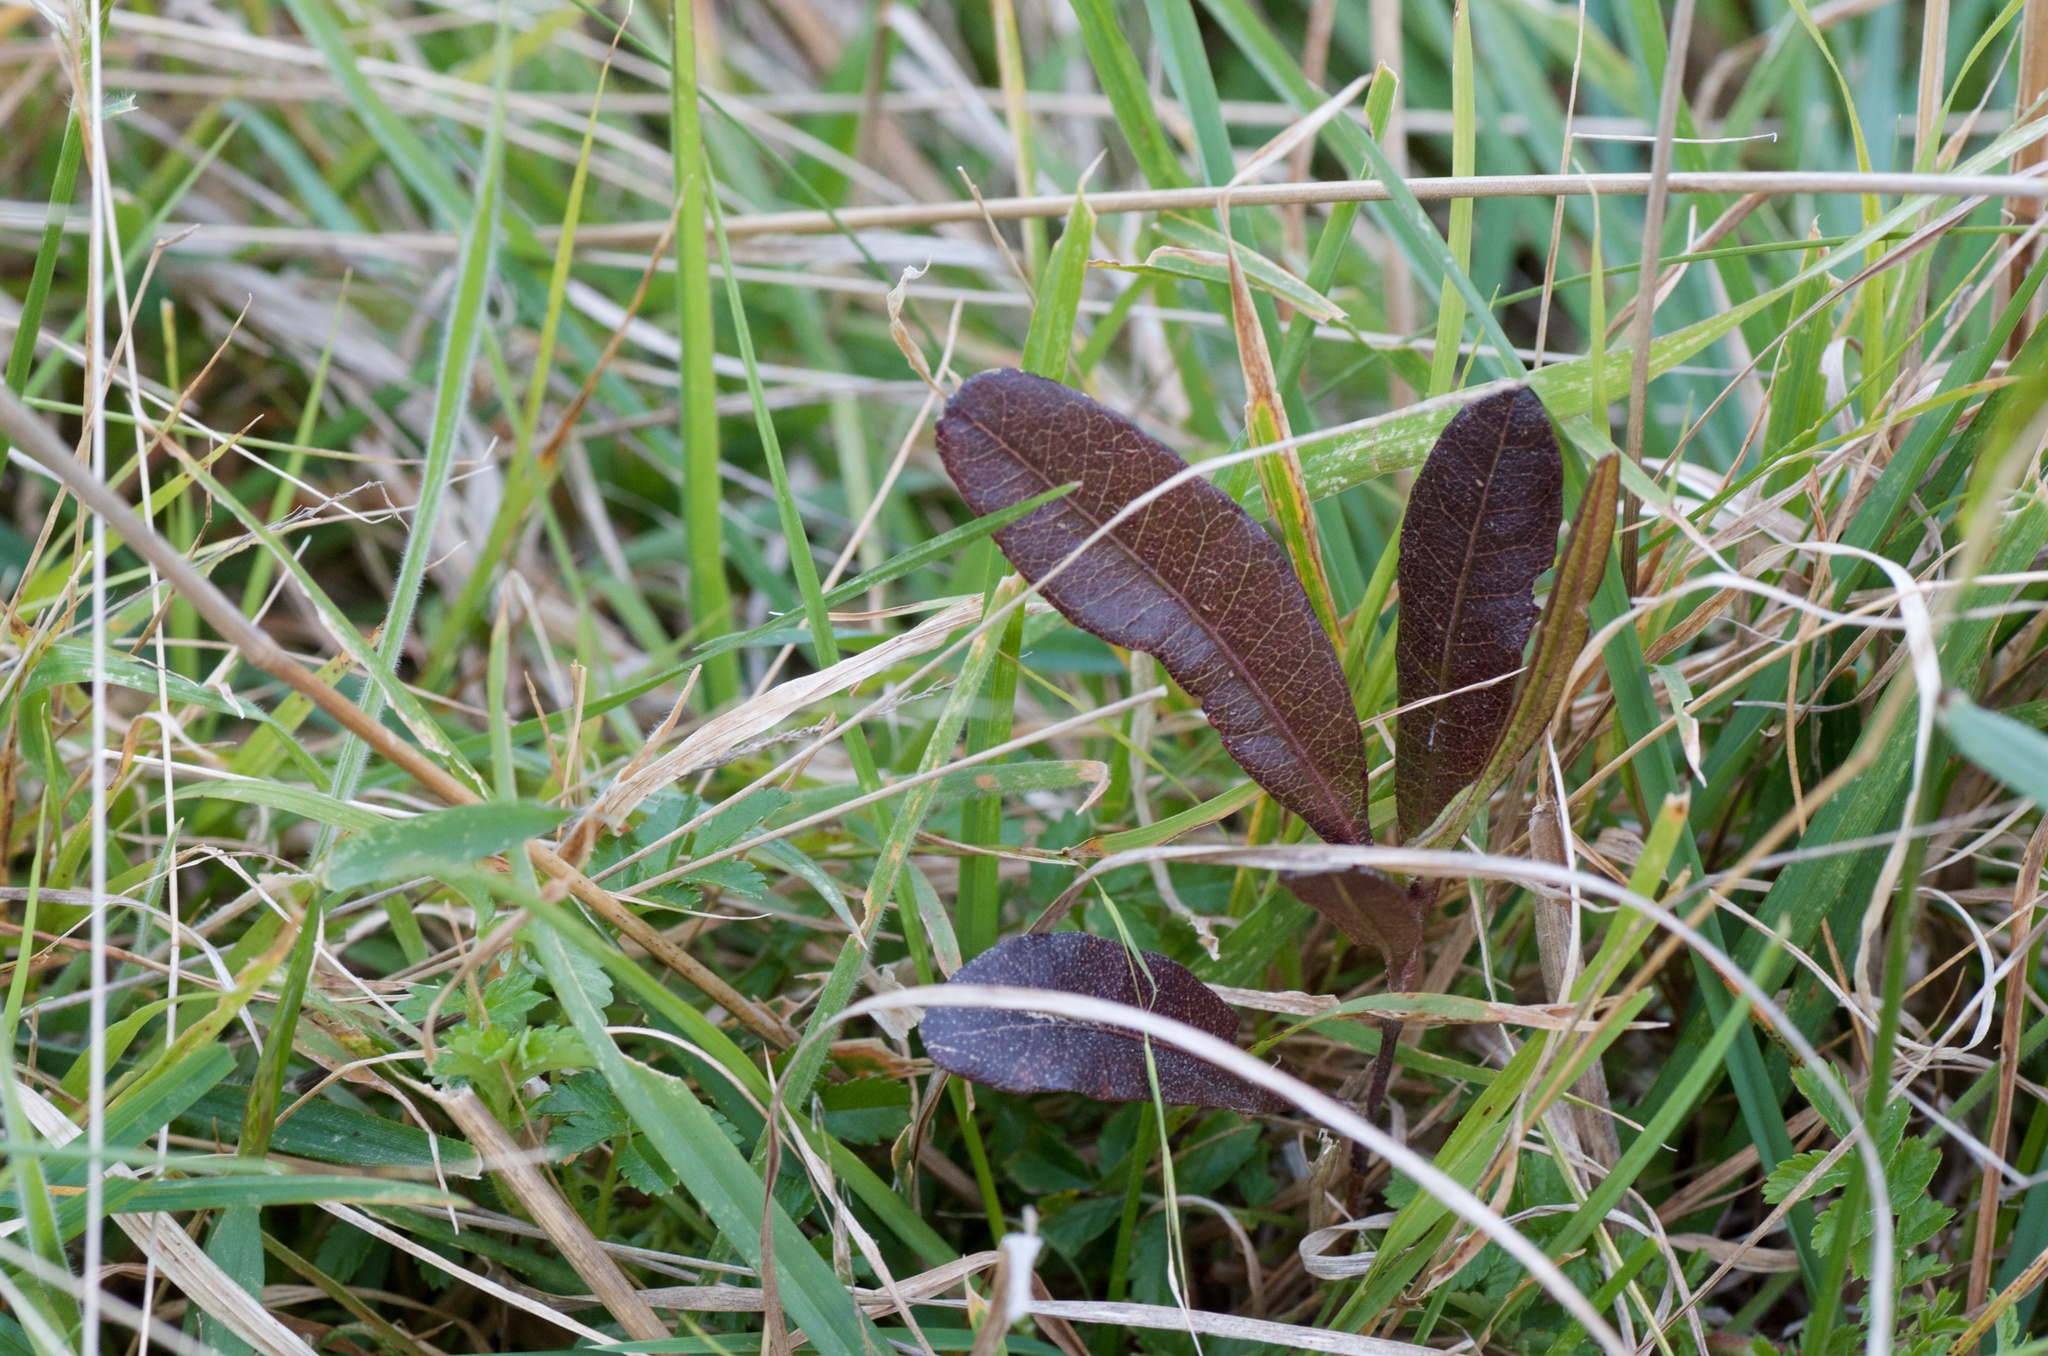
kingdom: Plantae
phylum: Tracheophyta
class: Magnoliopsida
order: Sapindales
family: Sapindaceae
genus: Dodonaea
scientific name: Dodonaea viscosa
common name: Hopbush
